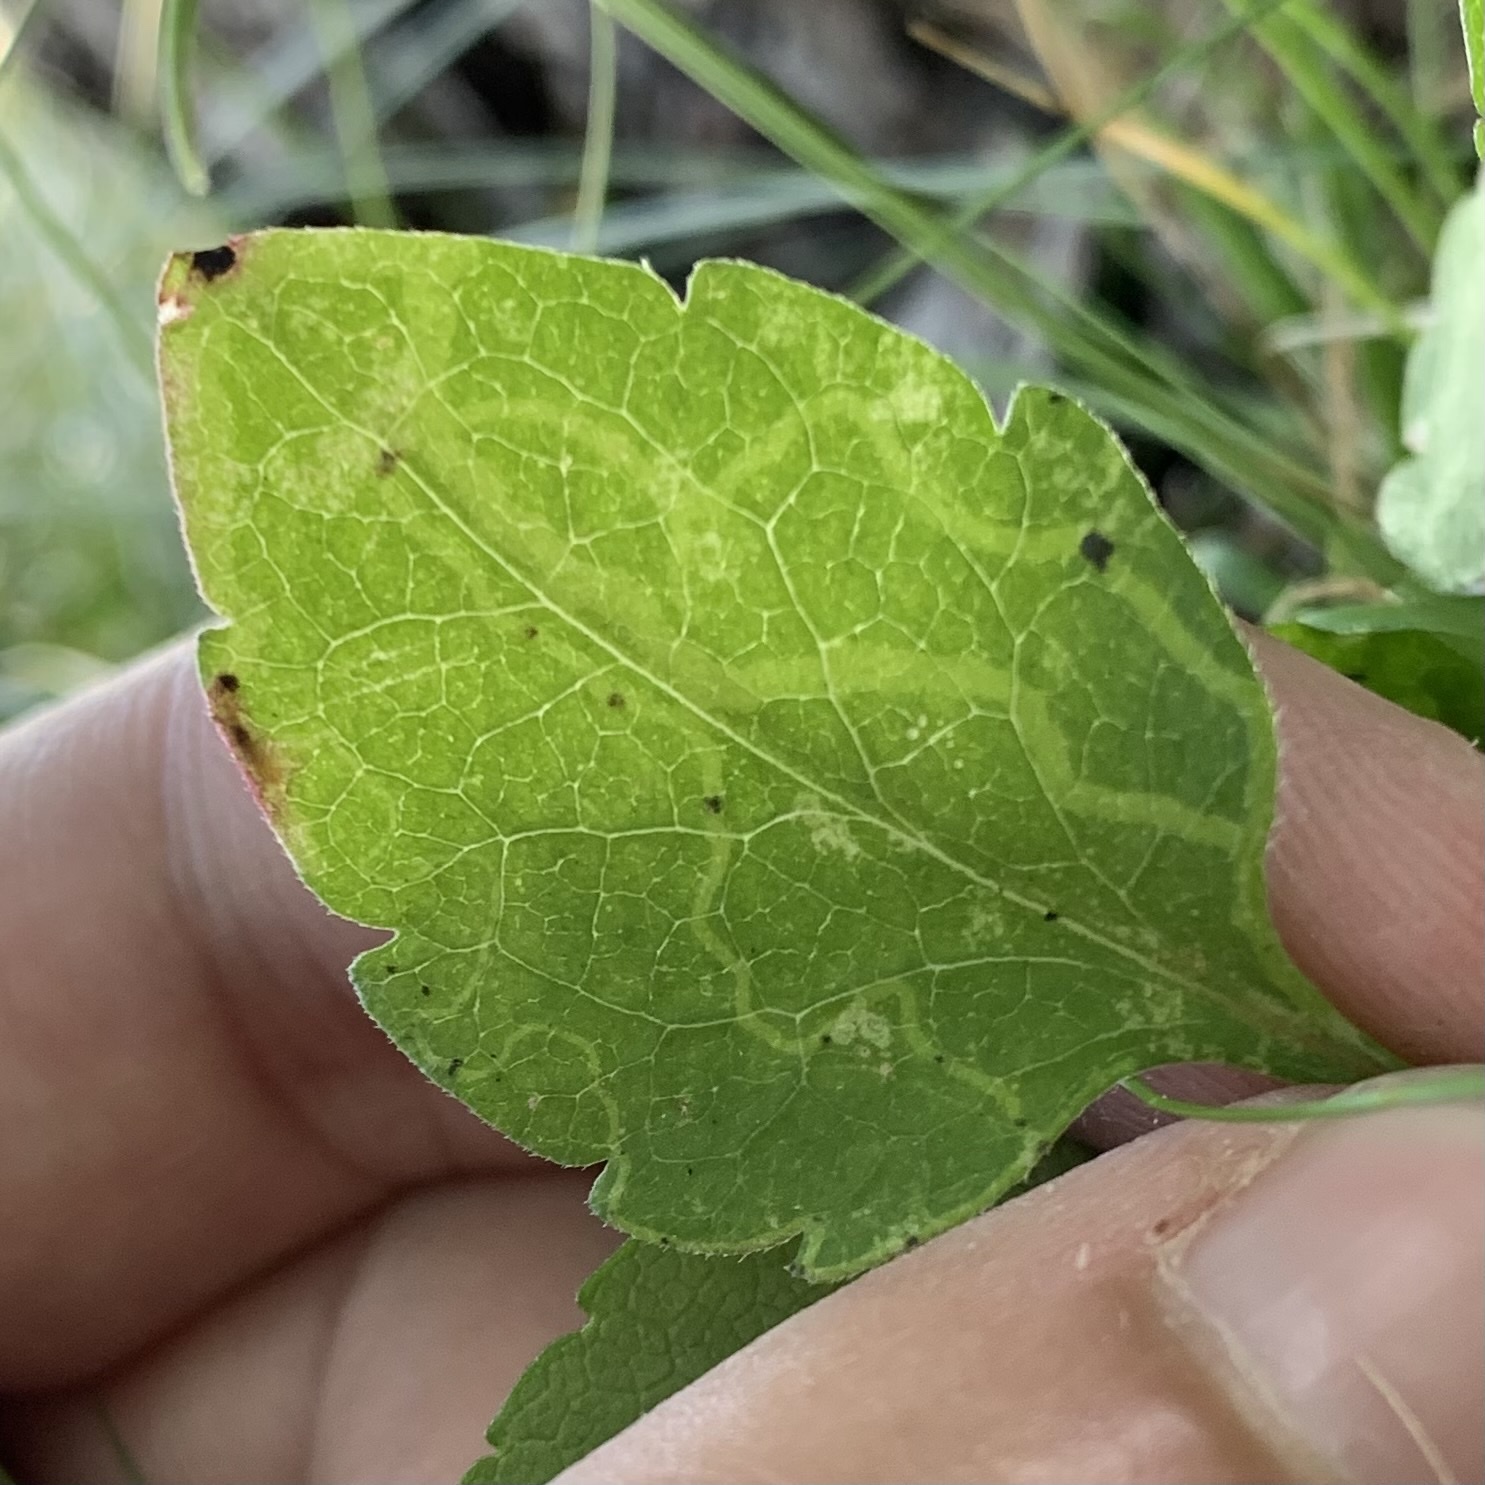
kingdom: Animalia
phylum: Arthropoda
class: Insecta
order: Diptera
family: Agromyzidae
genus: Ophiomyia
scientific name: Ophiomyia parda
